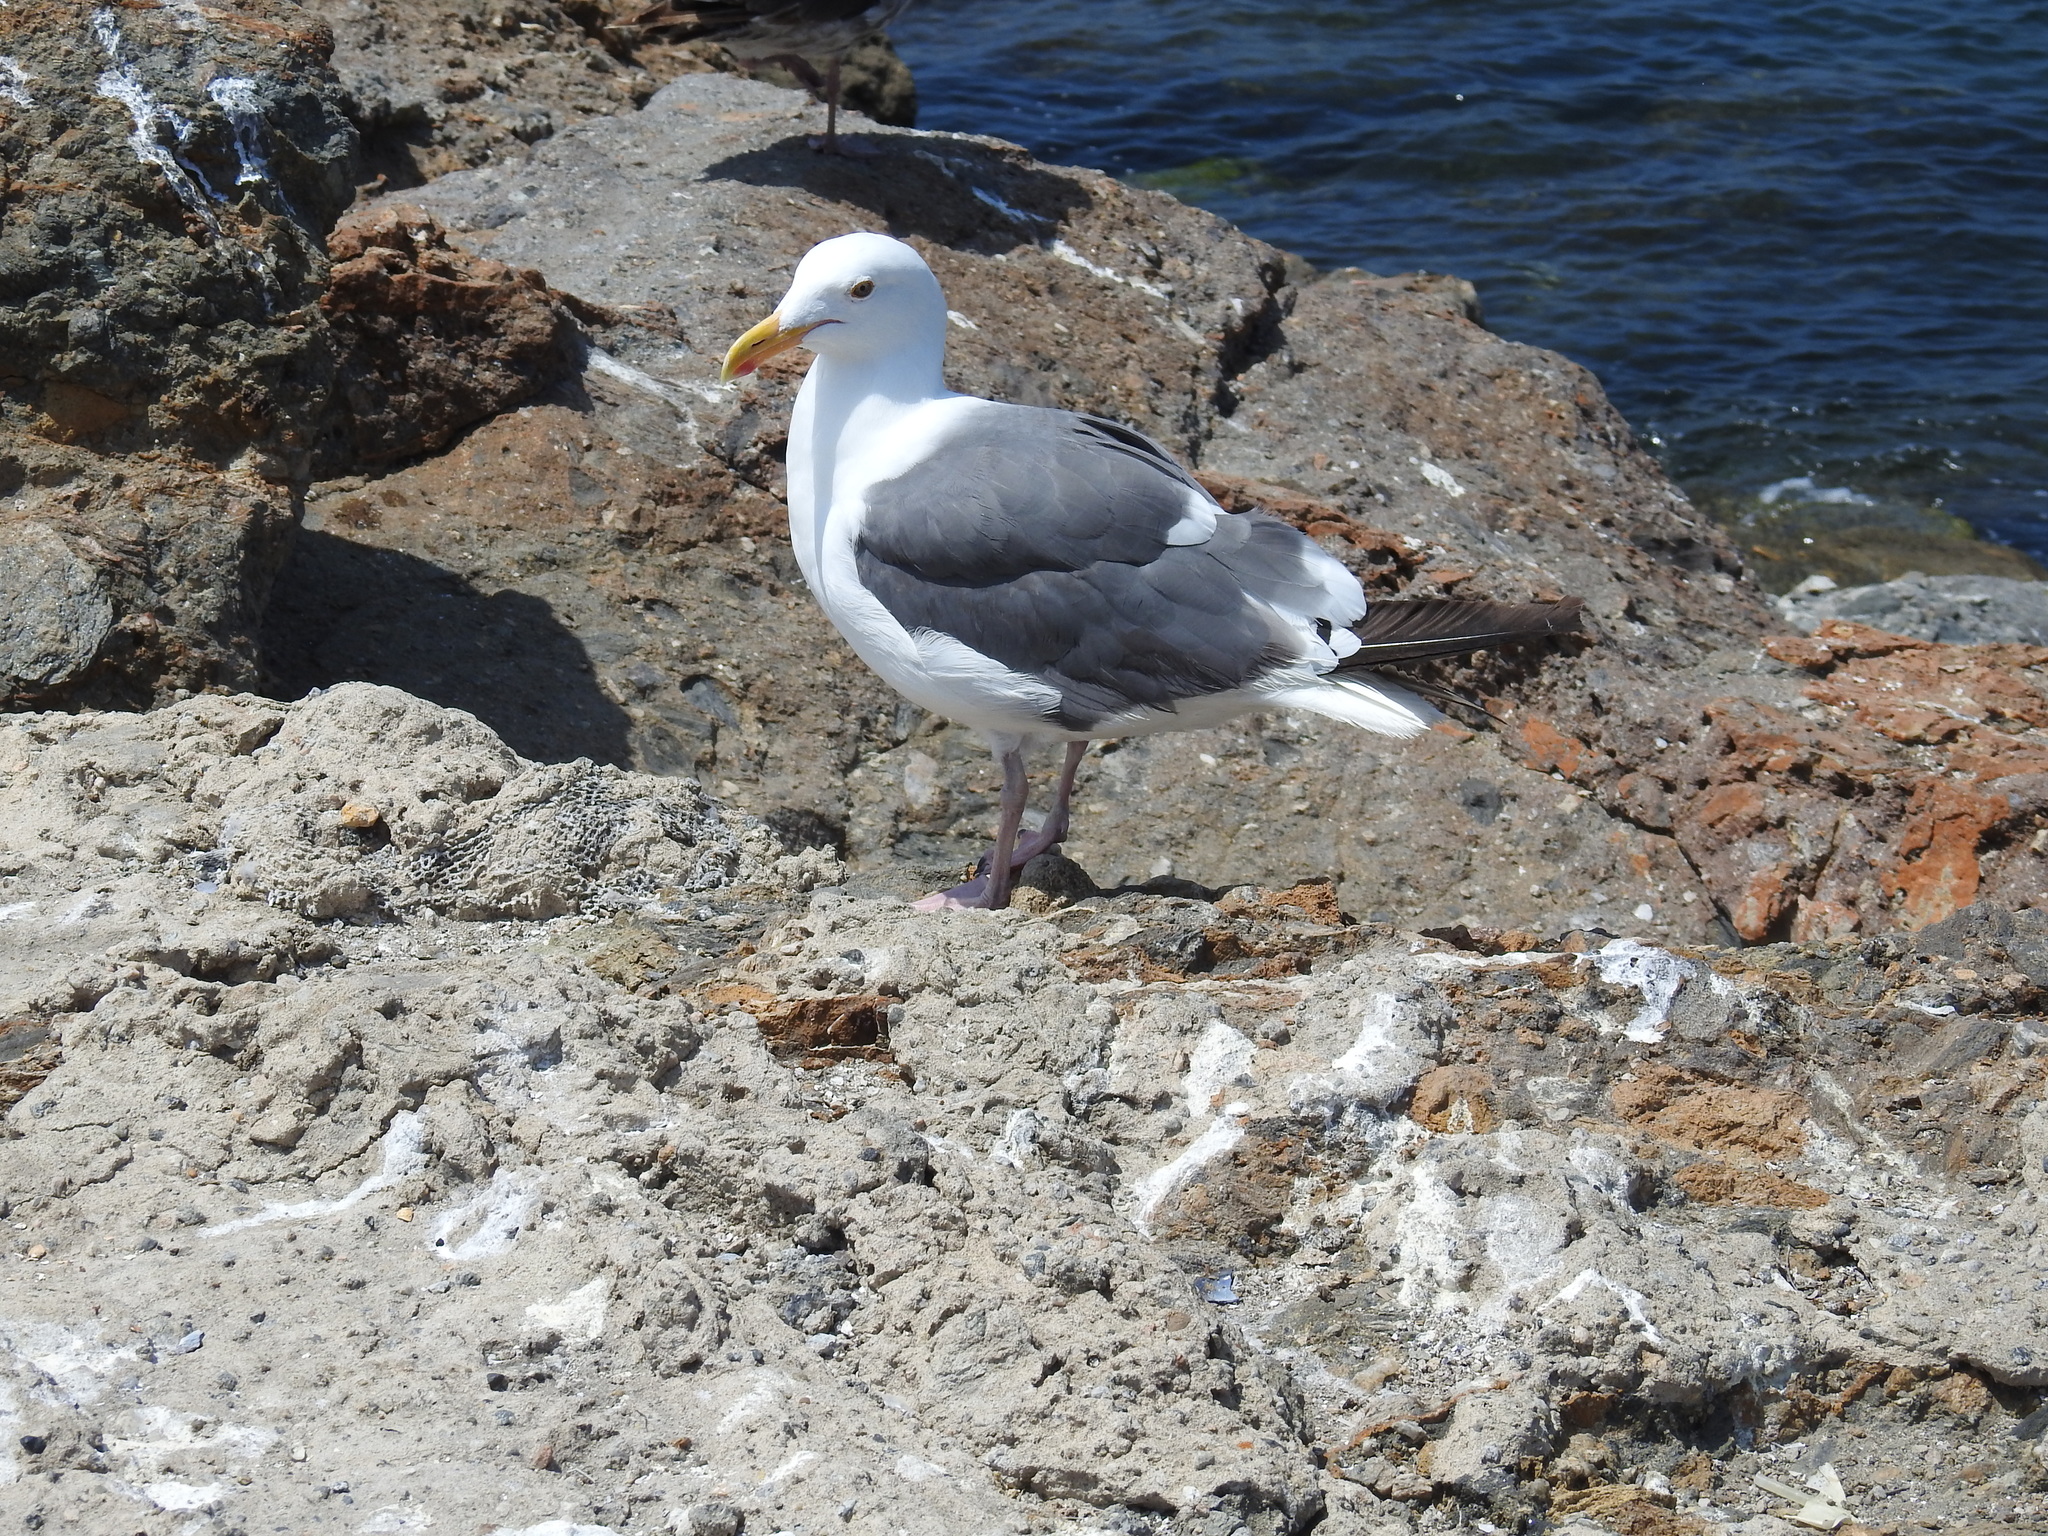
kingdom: Animalia
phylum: Chordata
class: Aves
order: Charadriiformes
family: Laridae
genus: Larus
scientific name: Larus occidentalis
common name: Western gull
